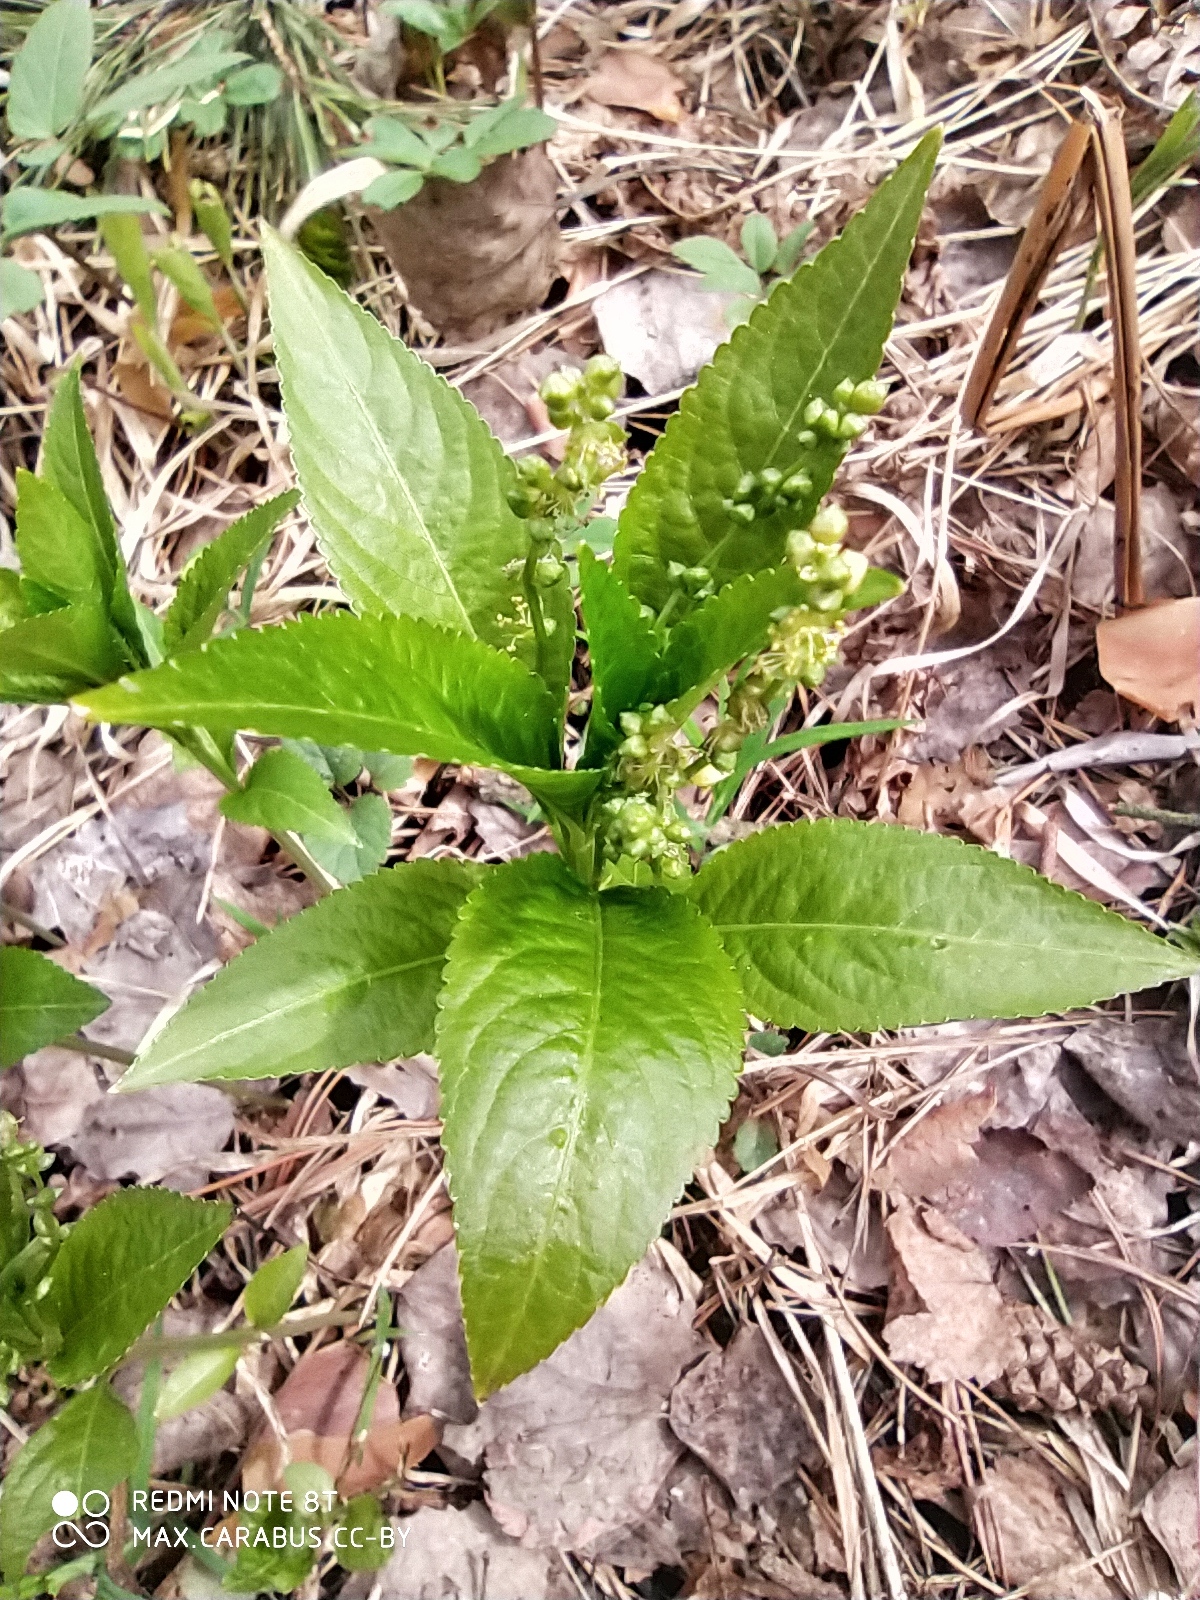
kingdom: Plantae
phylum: Tracheophyta
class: Magnoliopsida
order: Malpighiales
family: Euphorbiaceae
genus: Mercurialis
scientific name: Mercurialis perennis
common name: Dog mercury
